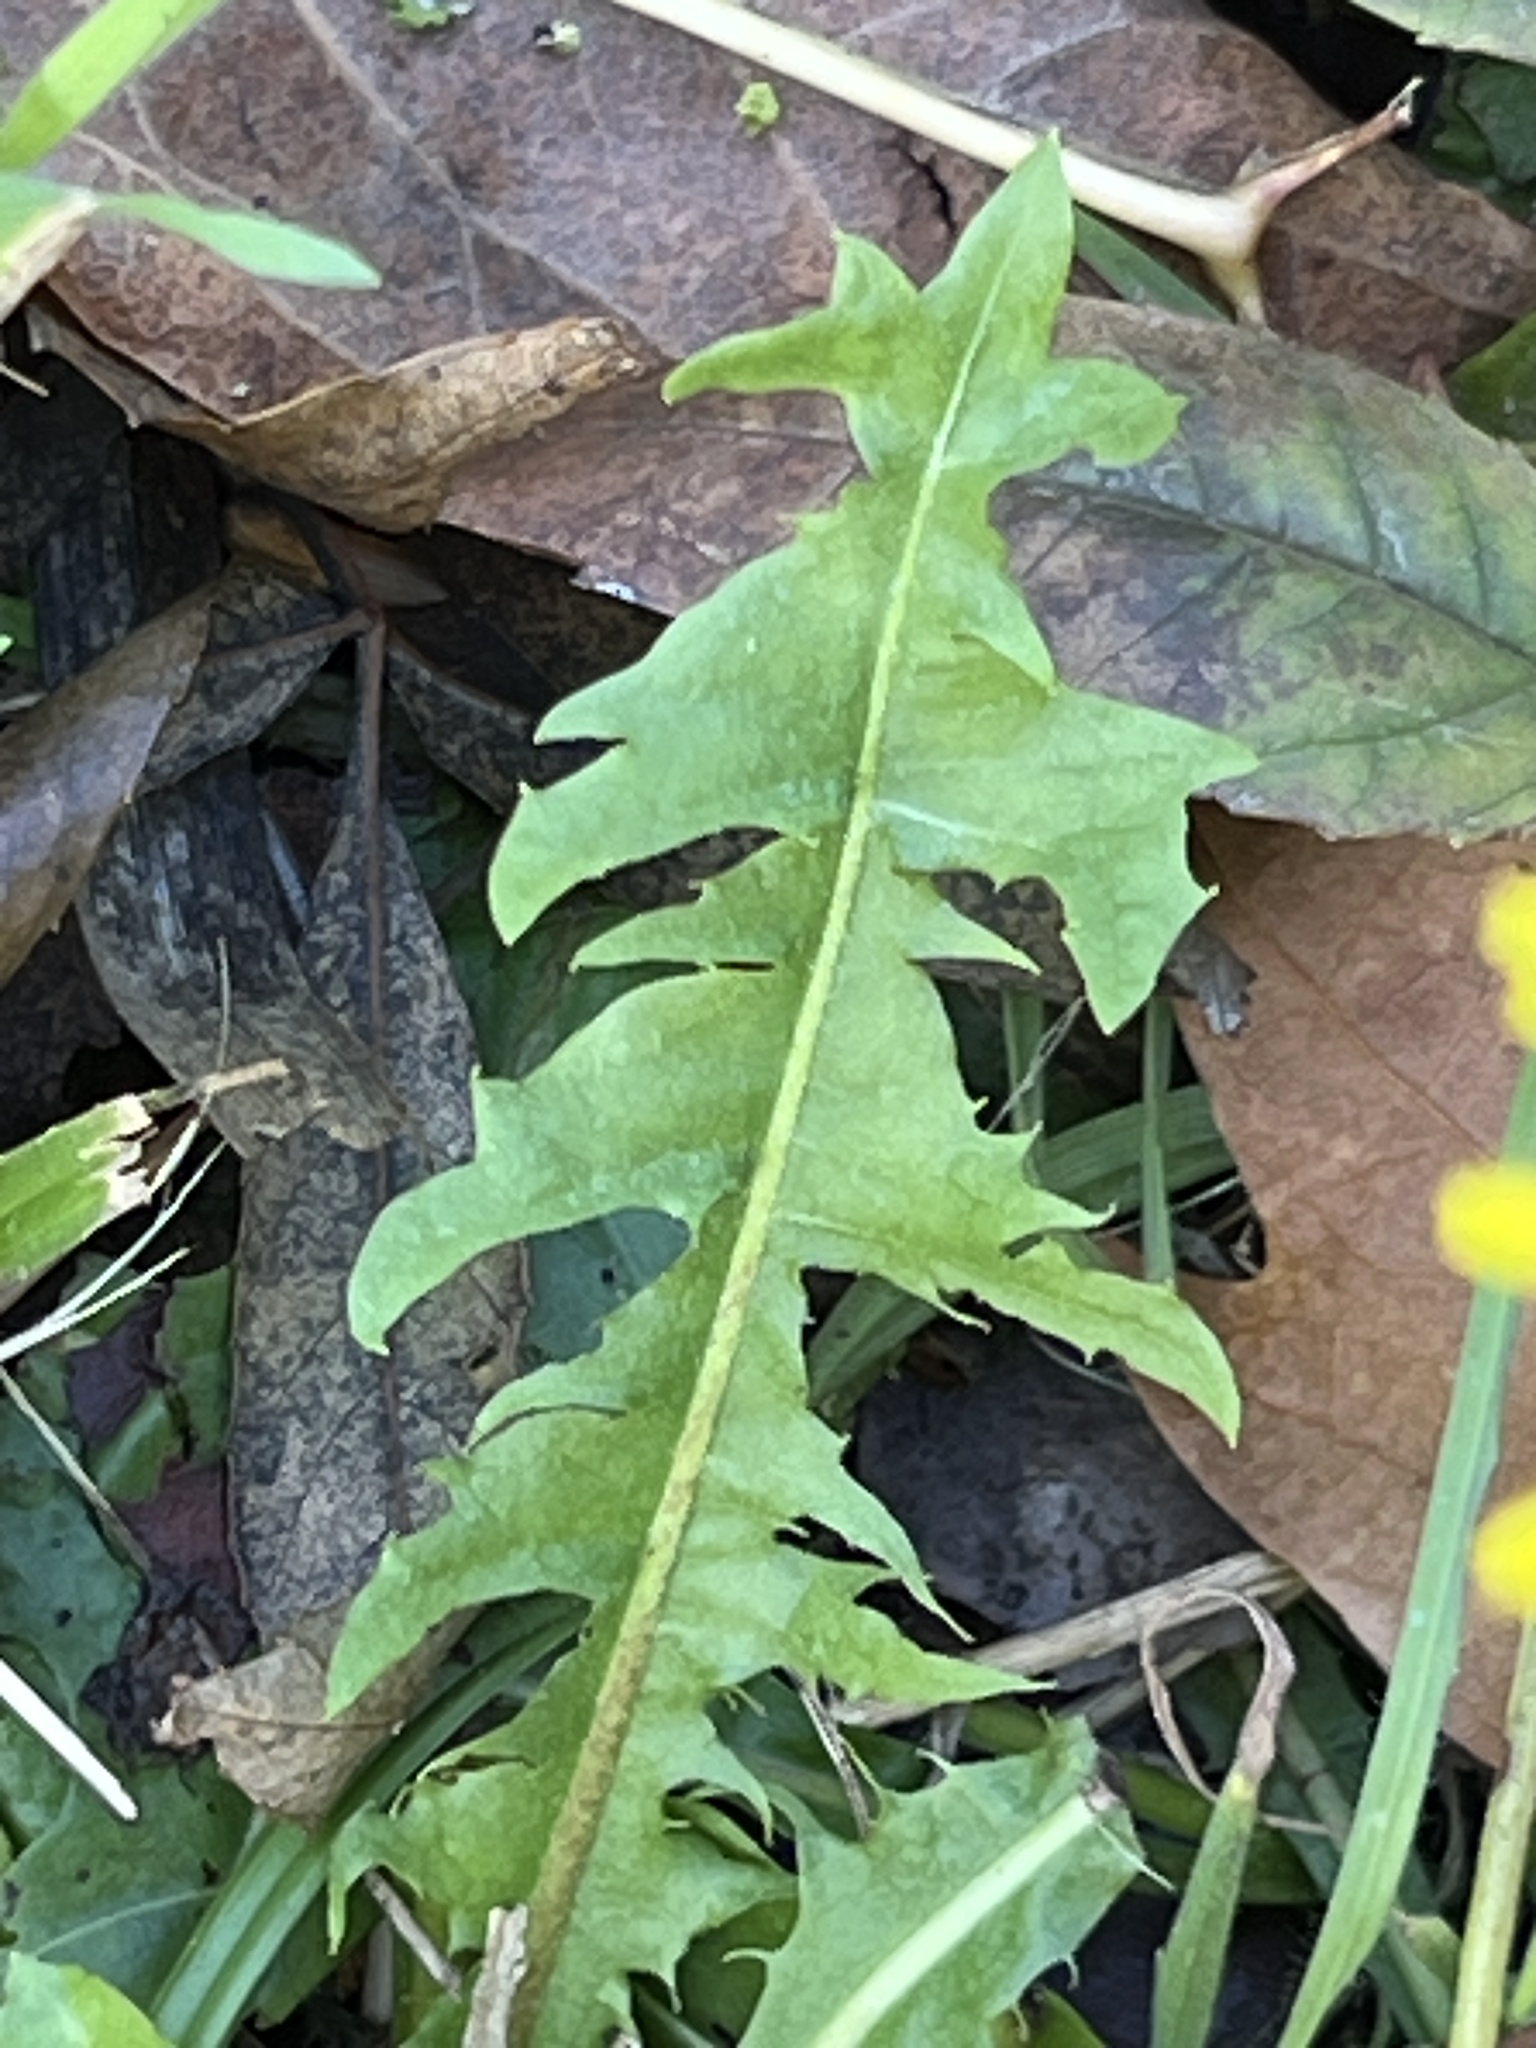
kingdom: Plantae
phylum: Tracheophyta
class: Magnoliopsida
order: Asterales
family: Asteraceae
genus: Taraxacum
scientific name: Taraxacum officinale
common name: Common dandelion
